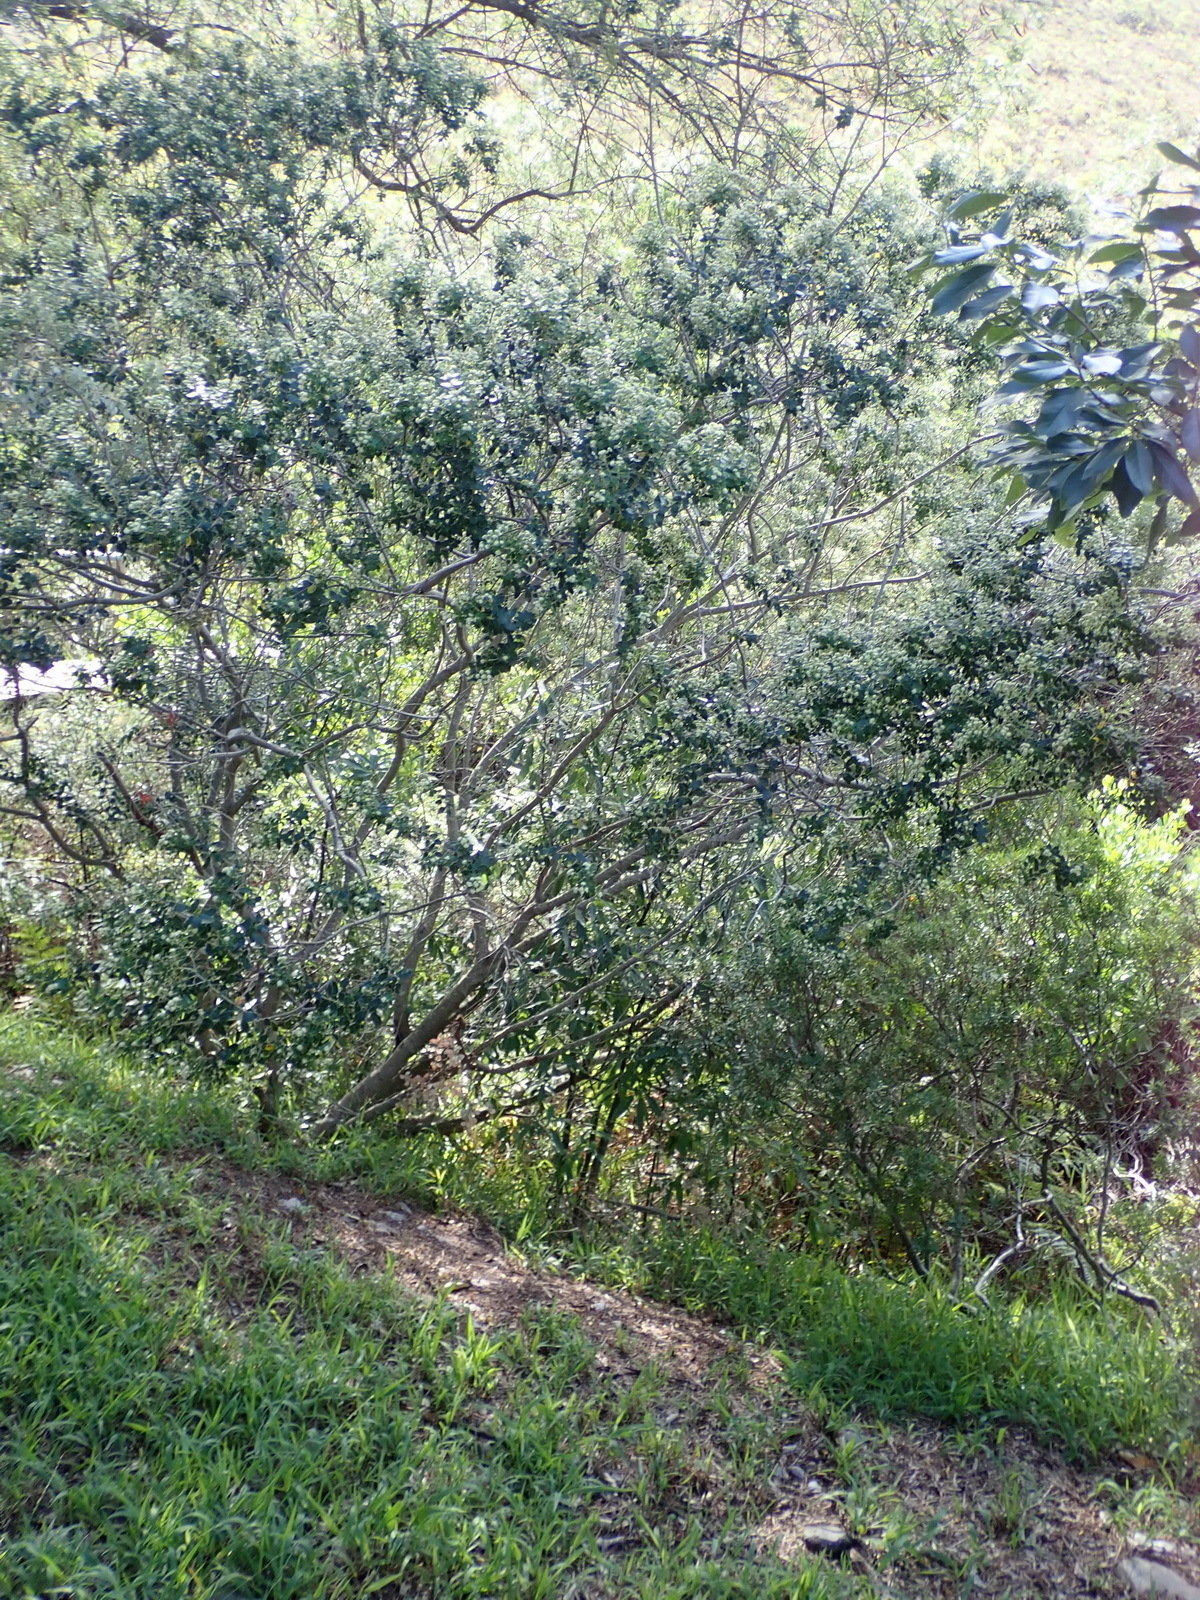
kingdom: Plantae
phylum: Tracheophyta
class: Magnoliopsida
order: Rosales
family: Rhamnaceae
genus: Phylica
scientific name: Phylica buxifolia
